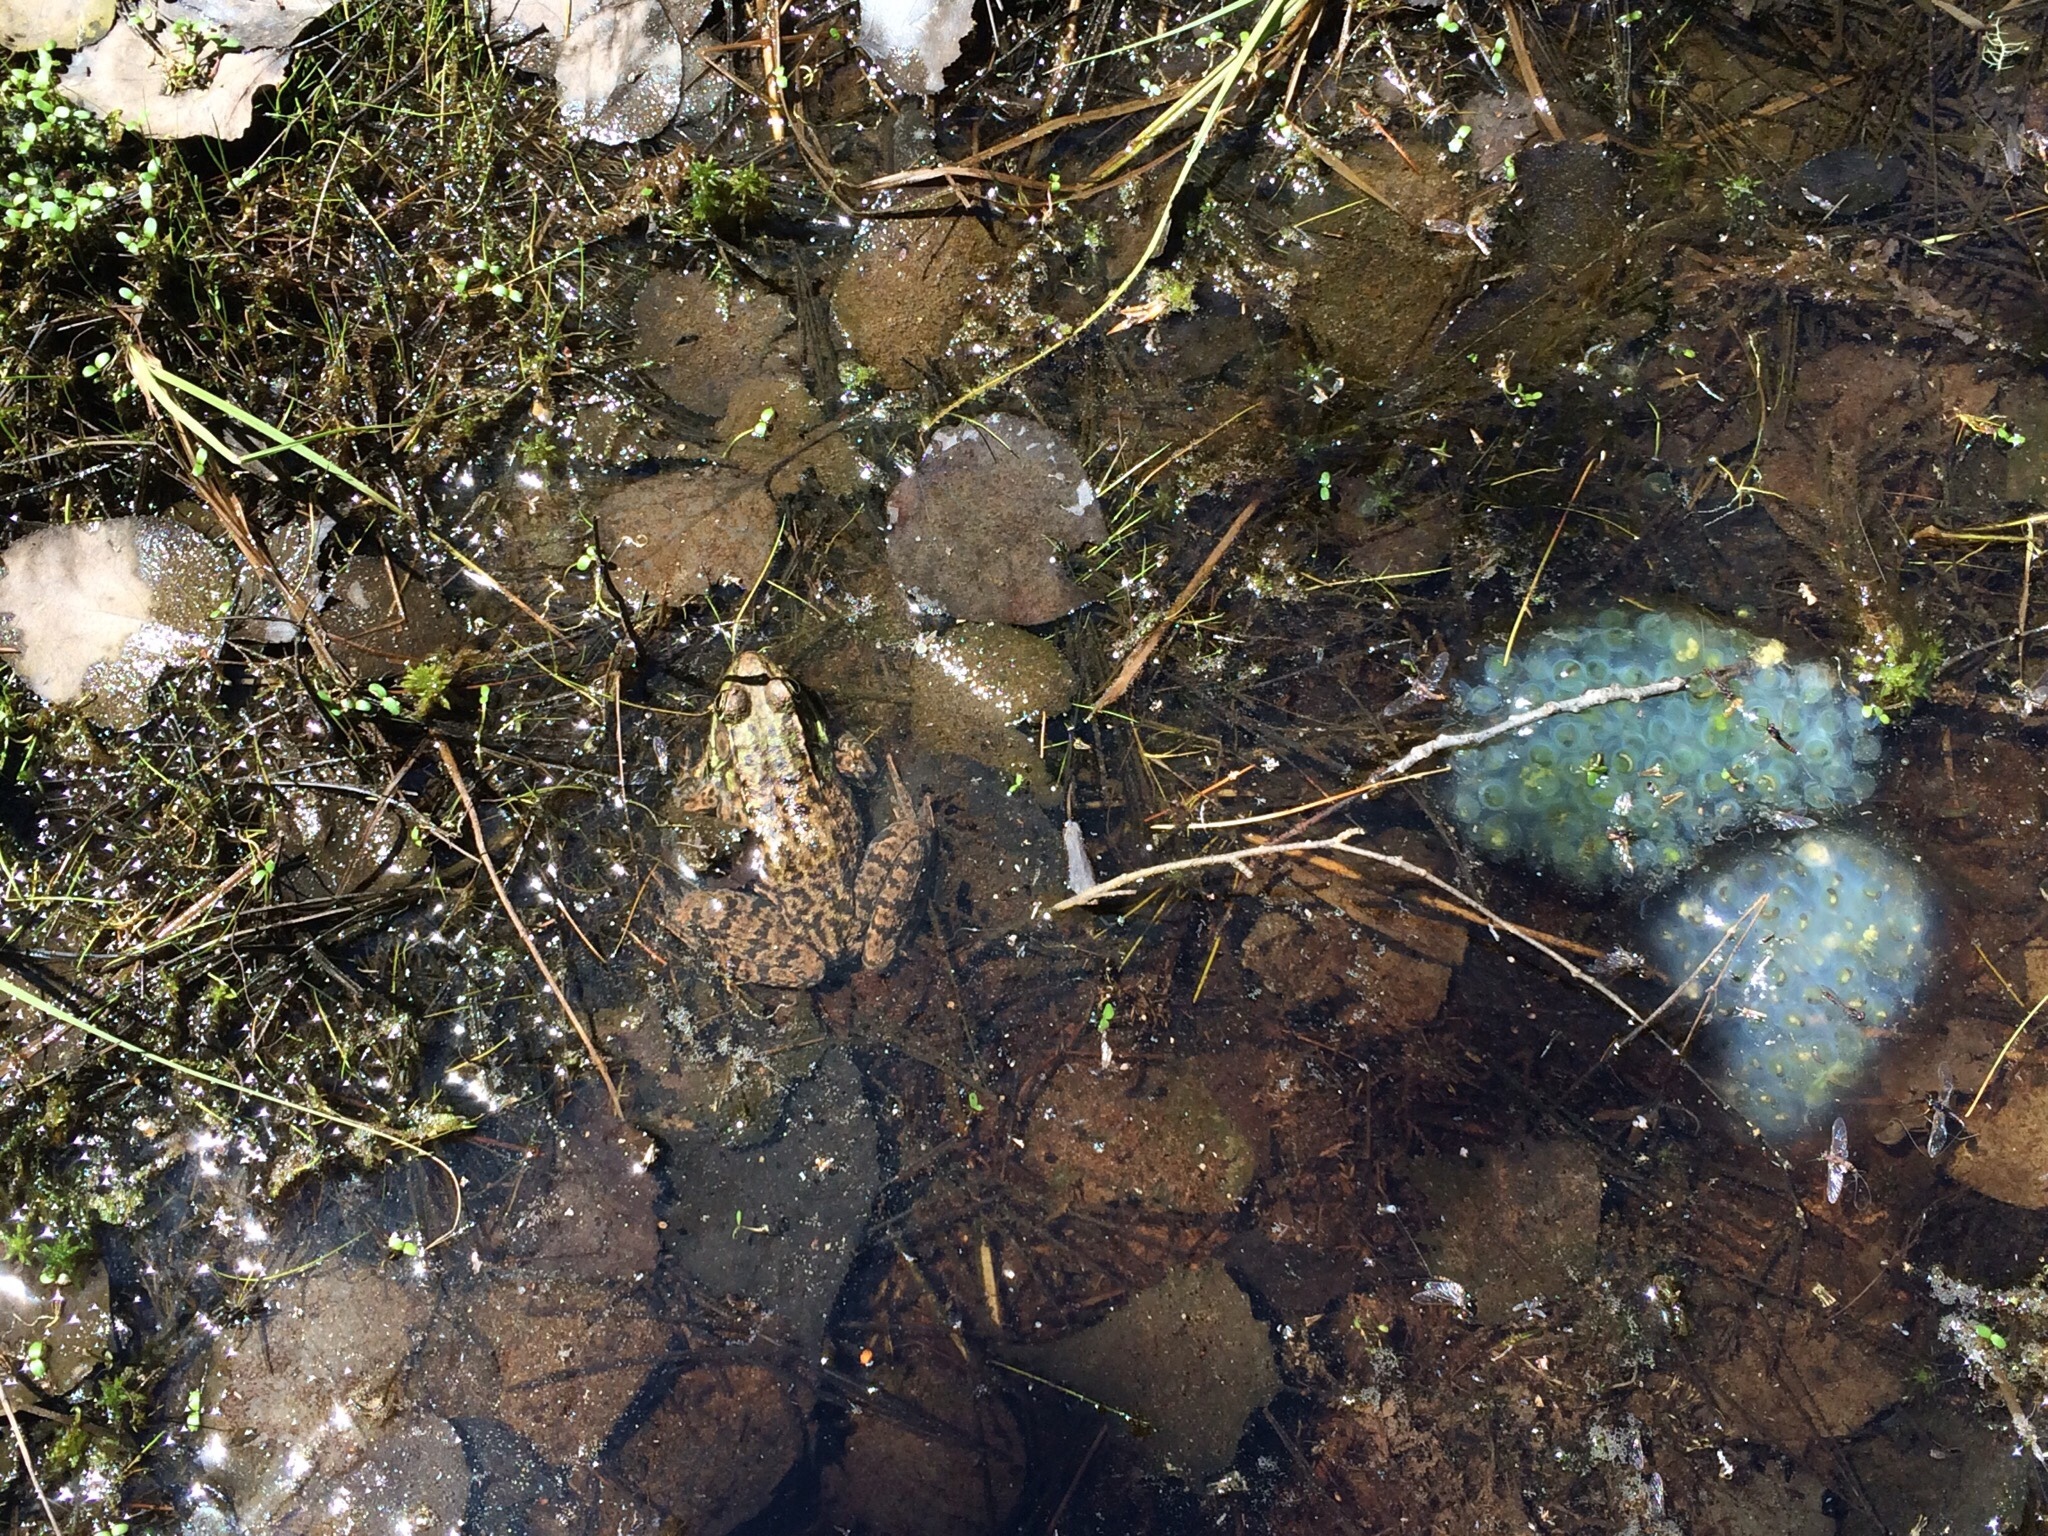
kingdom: Animalia
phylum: Chordata
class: Amphibia
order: Anura
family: Ranidae
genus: Lithobates
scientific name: Lithobates clamitans
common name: Green frog
